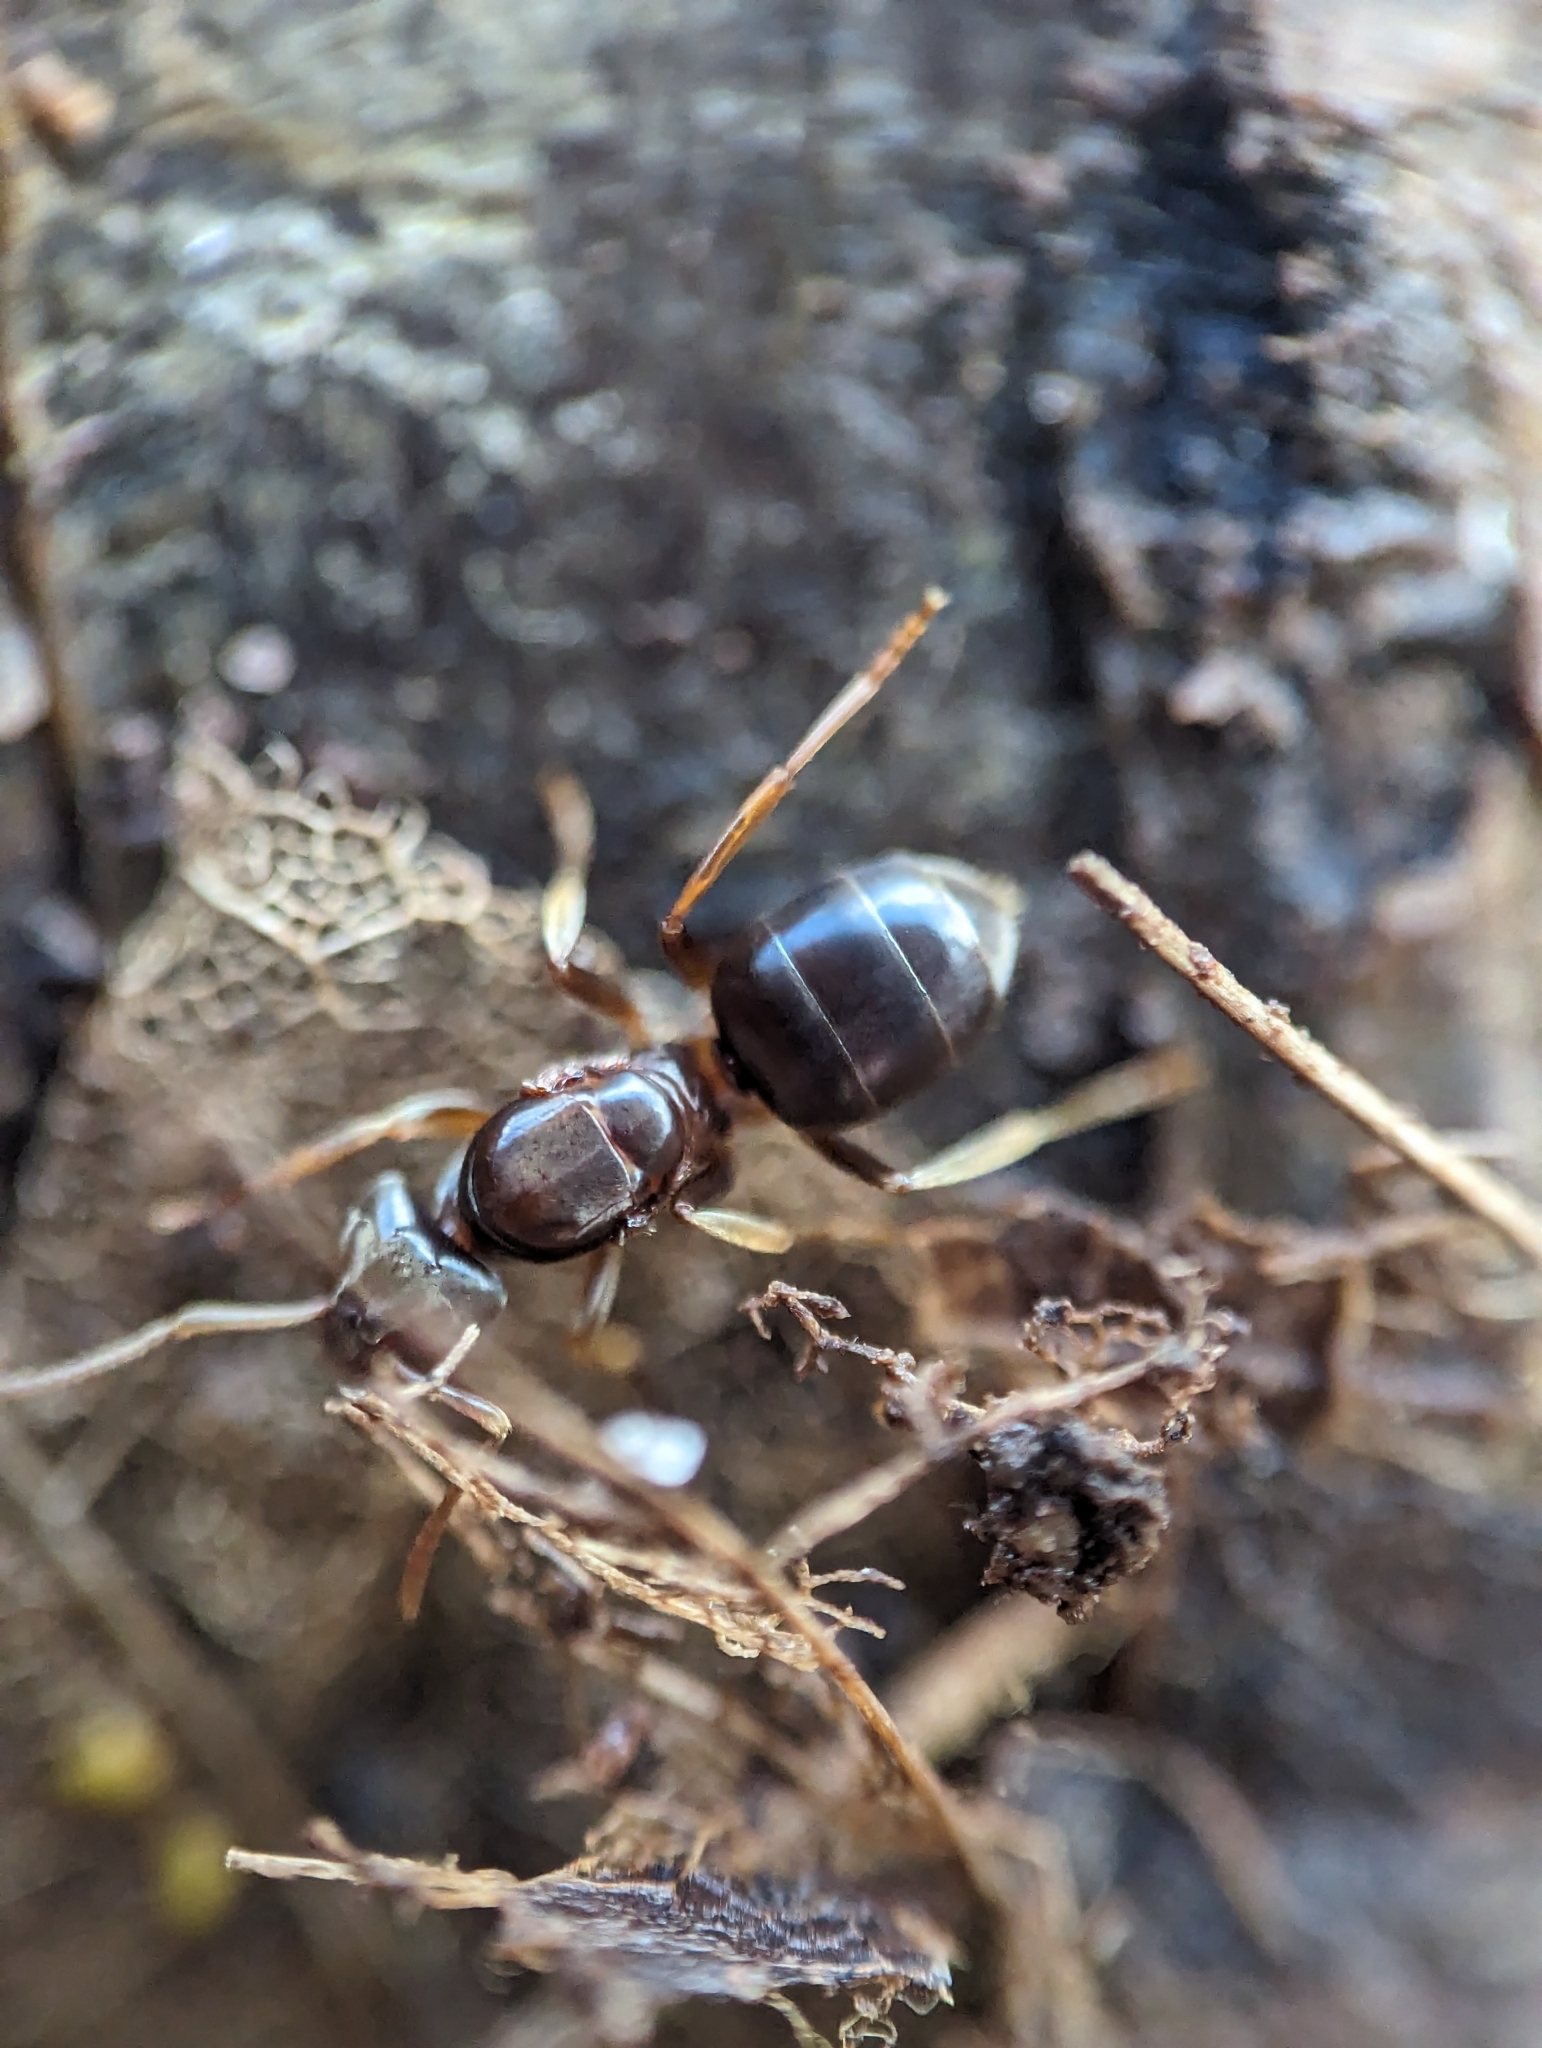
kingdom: Animalia
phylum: Arthropoda
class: Insecta
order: Hymenoptera
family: Formicidae
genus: Lasius
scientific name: Lasius aphidicola
